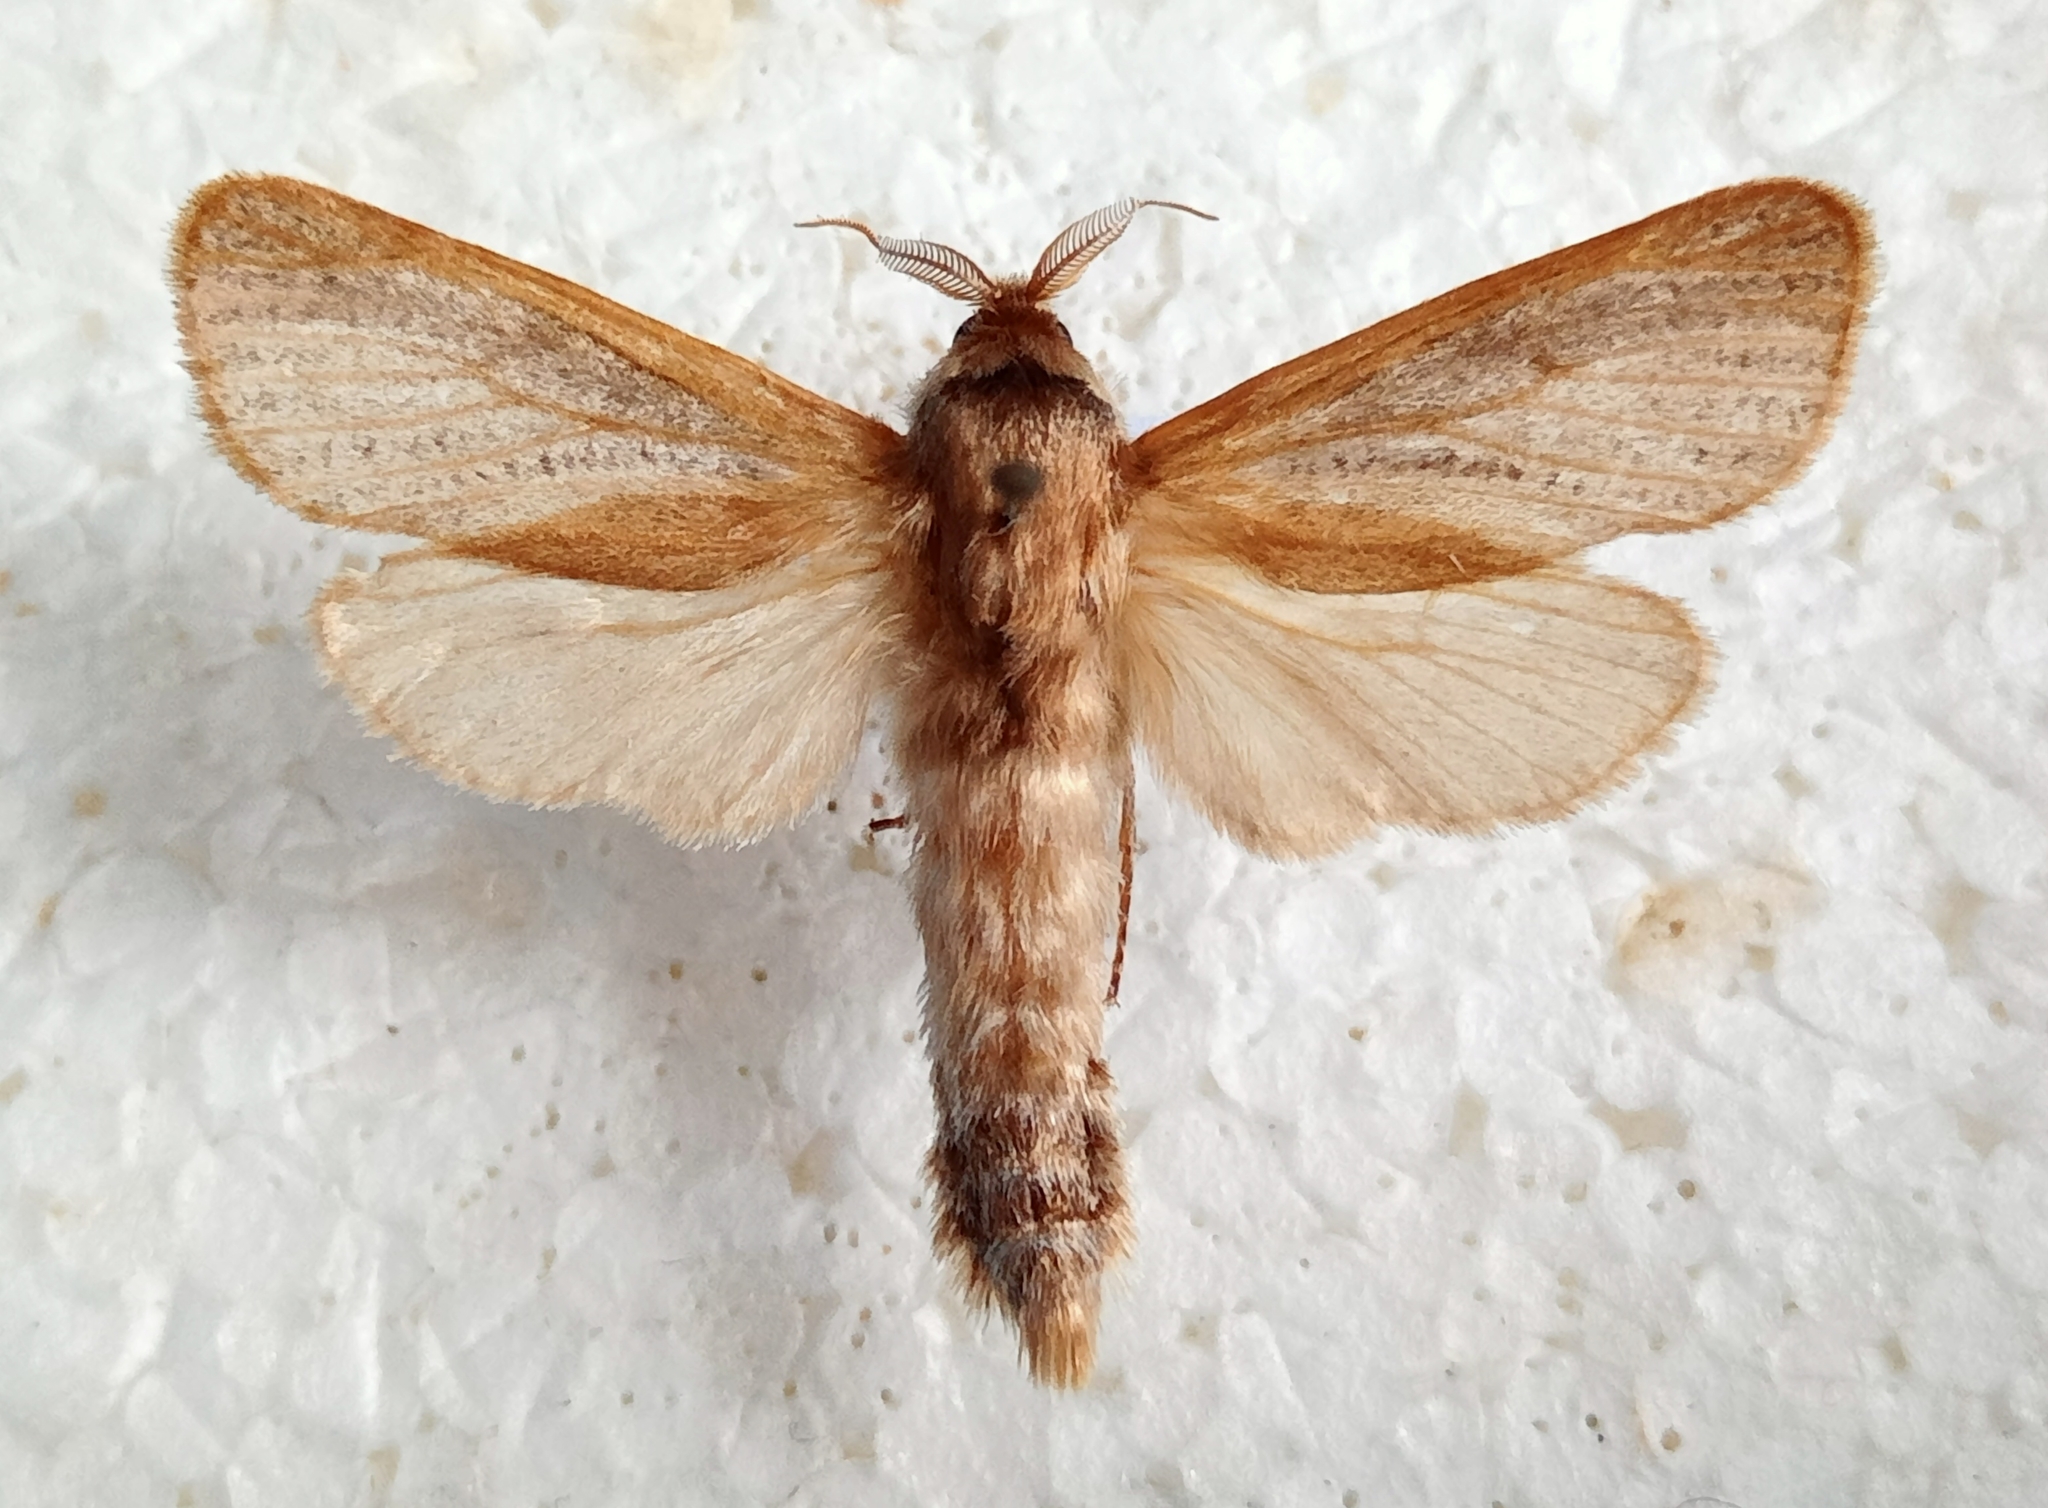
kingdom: Animalia
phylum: Arthropoda
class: Insecta
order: Lepidoptera
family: Cossidae
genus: Phragmataecia
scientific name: Phragmataecia castaneae
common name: Reed leopard
